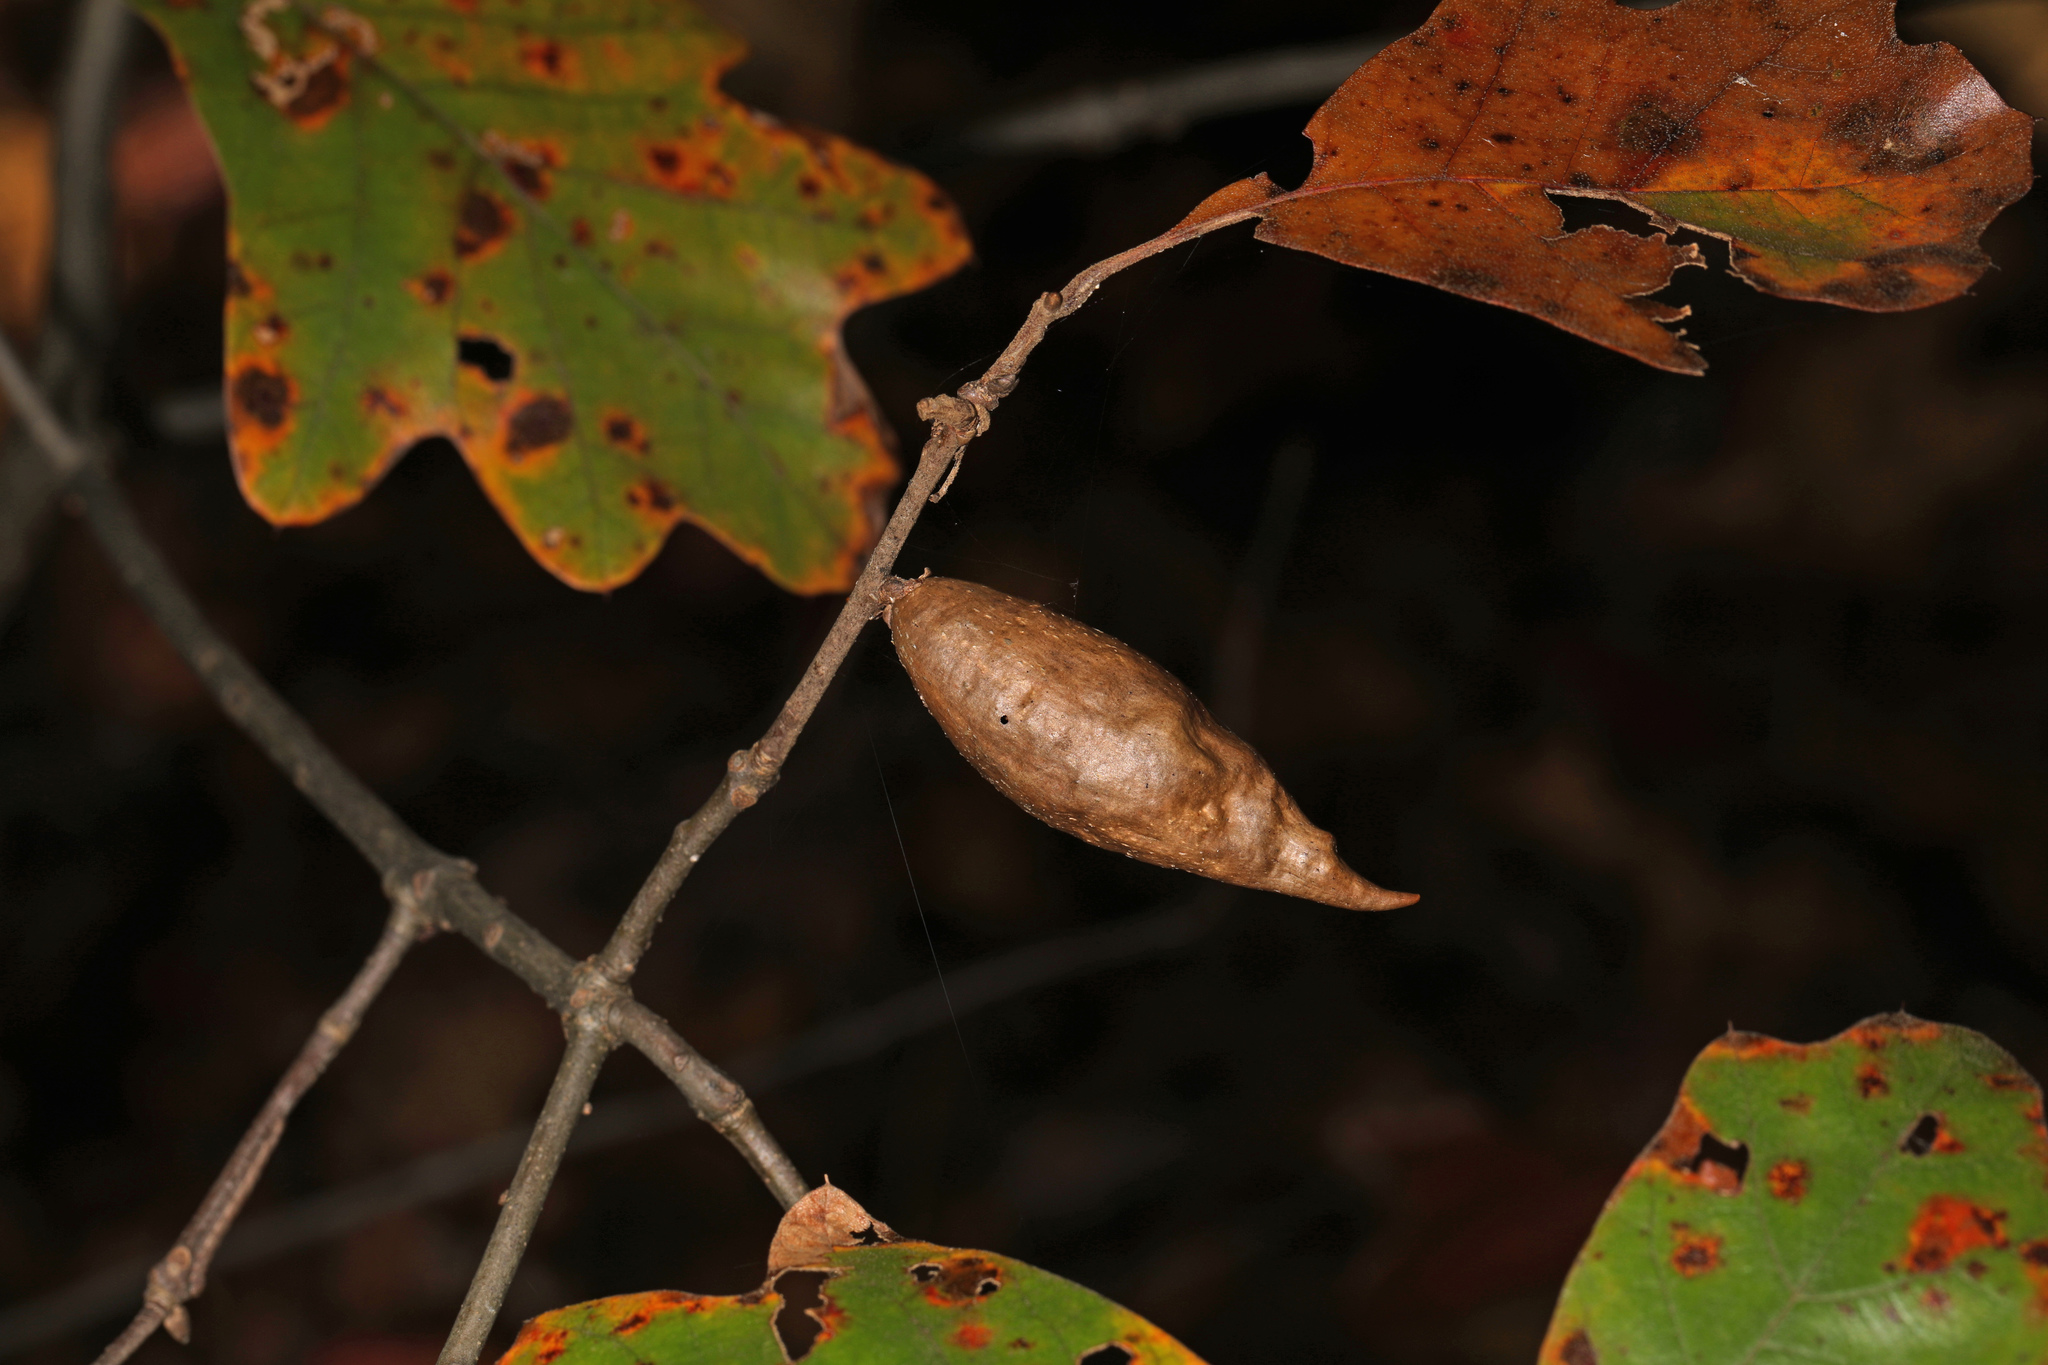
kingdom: Animalia
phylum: Arthropoda
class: Insecta
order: Hymenoptera
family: Cynipidae
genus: Amphibolips
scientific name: Amphibolips
